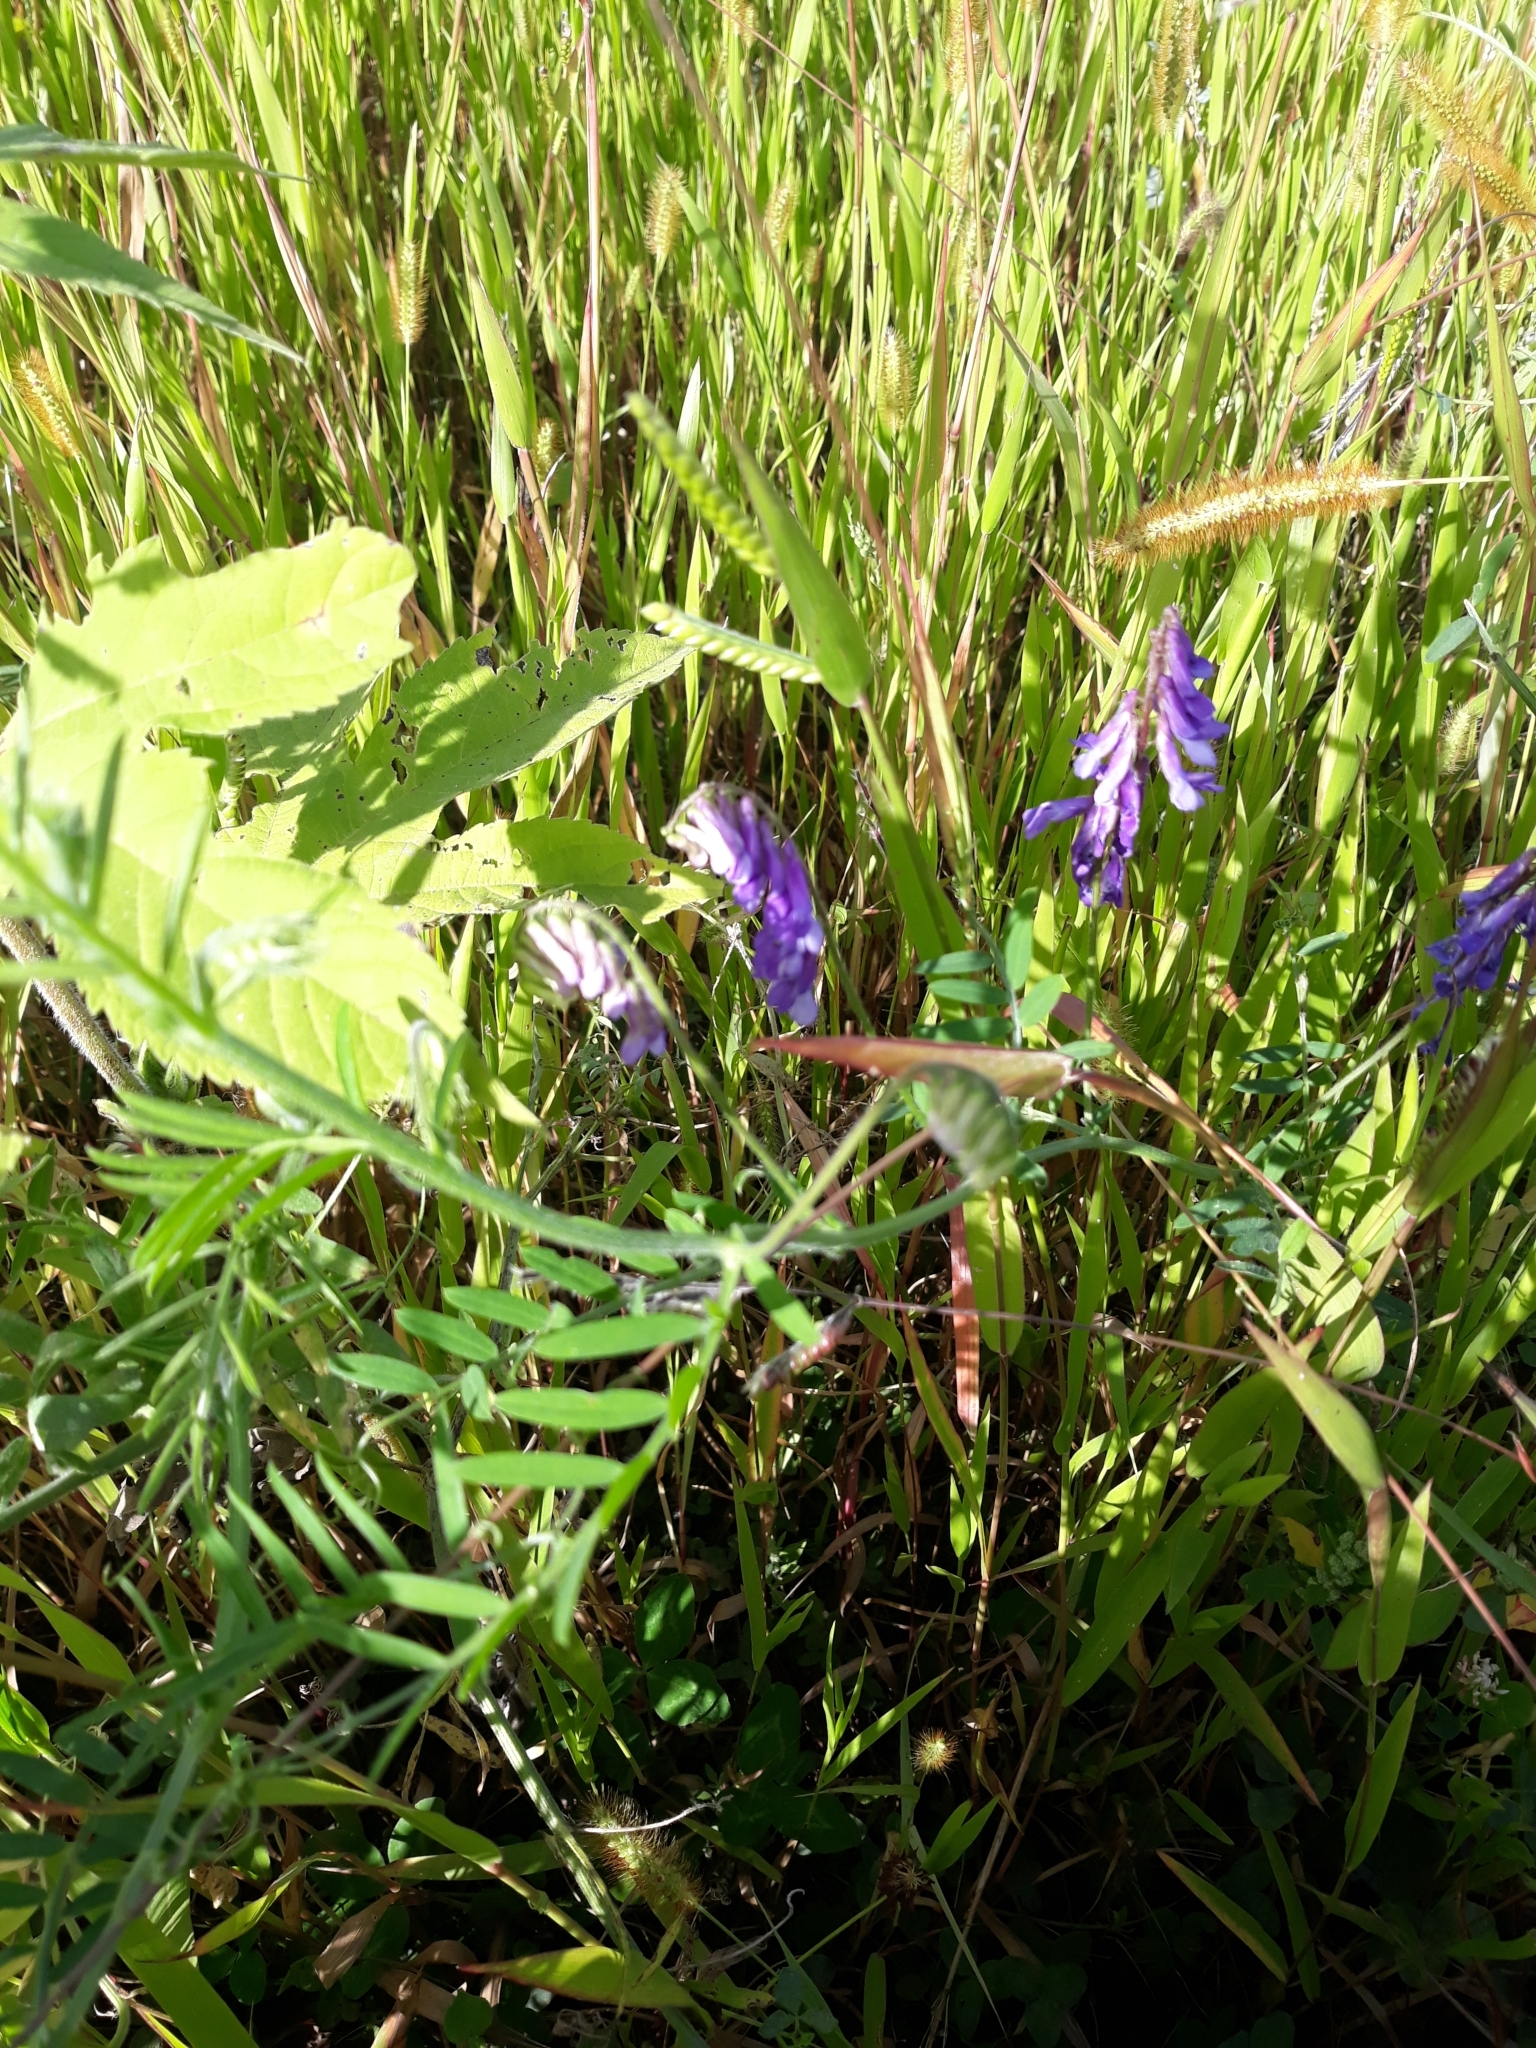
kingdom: Plantae
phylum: Tracheophyta
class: Magnoliopsida
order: Fabales
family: Fabaceae
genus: Vicia
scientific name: Vicia villosa
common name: Fodder vetch
